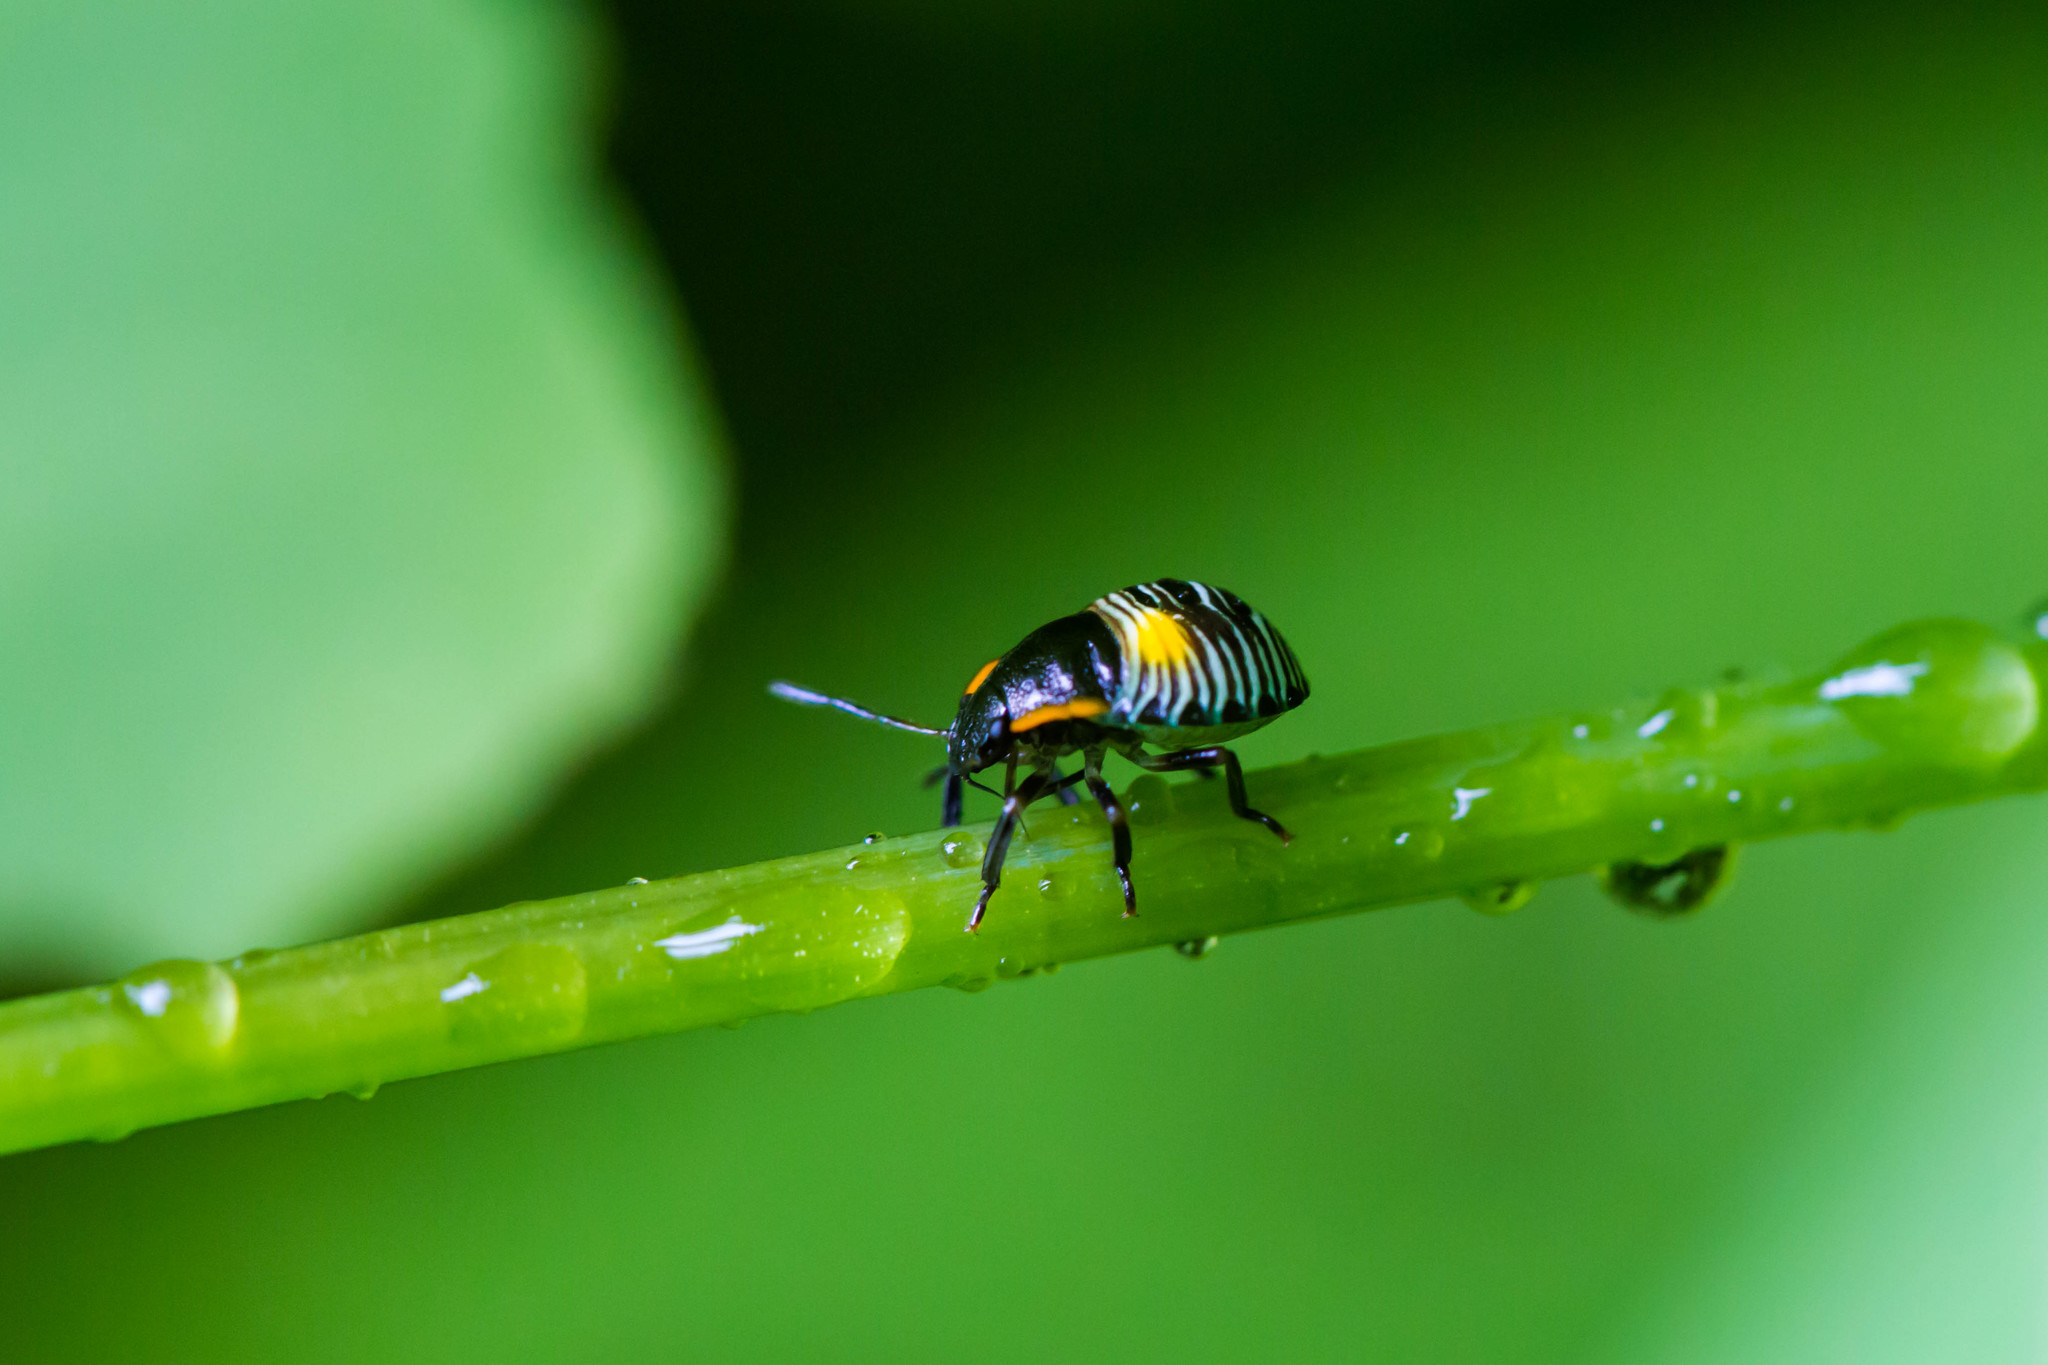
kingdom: Animalia
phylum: Arthropoda
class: Insecta
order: Hemiptera
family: Pentatomidae
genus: Chinavia
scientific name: Chinavia hilaris
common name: Green stink bug
